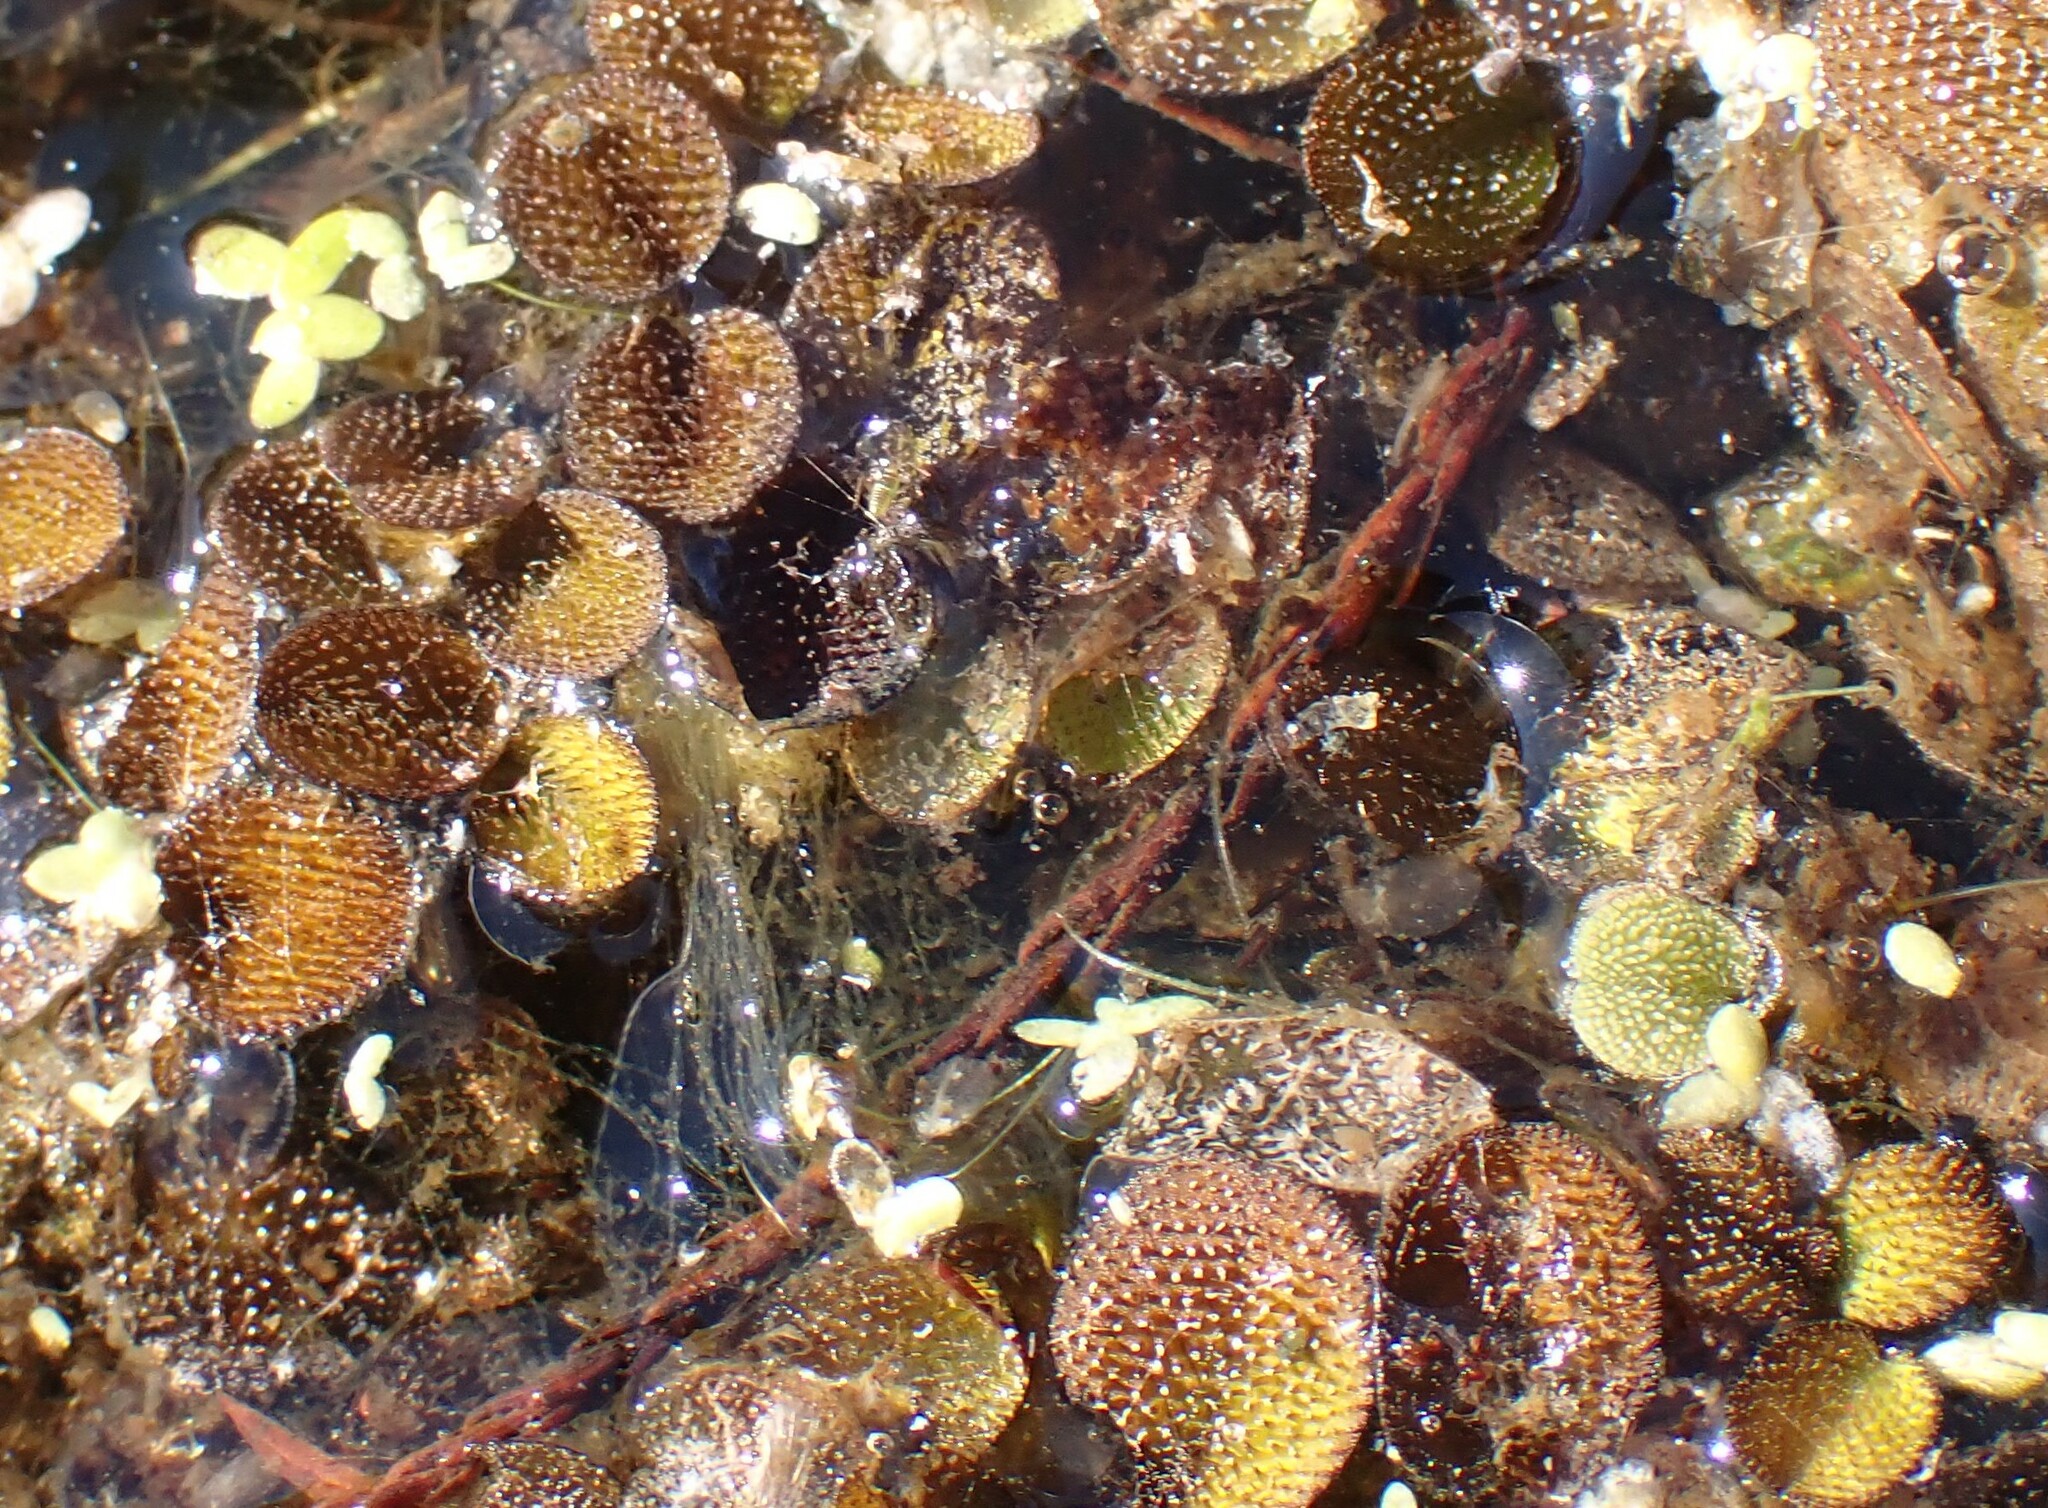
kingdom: Plantae
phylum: Tracheophyta
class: Polypodiopsida
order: Salviniales
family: Salviniaceae
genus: Salvinia
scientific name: Salvinia minima
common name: Water spangles
